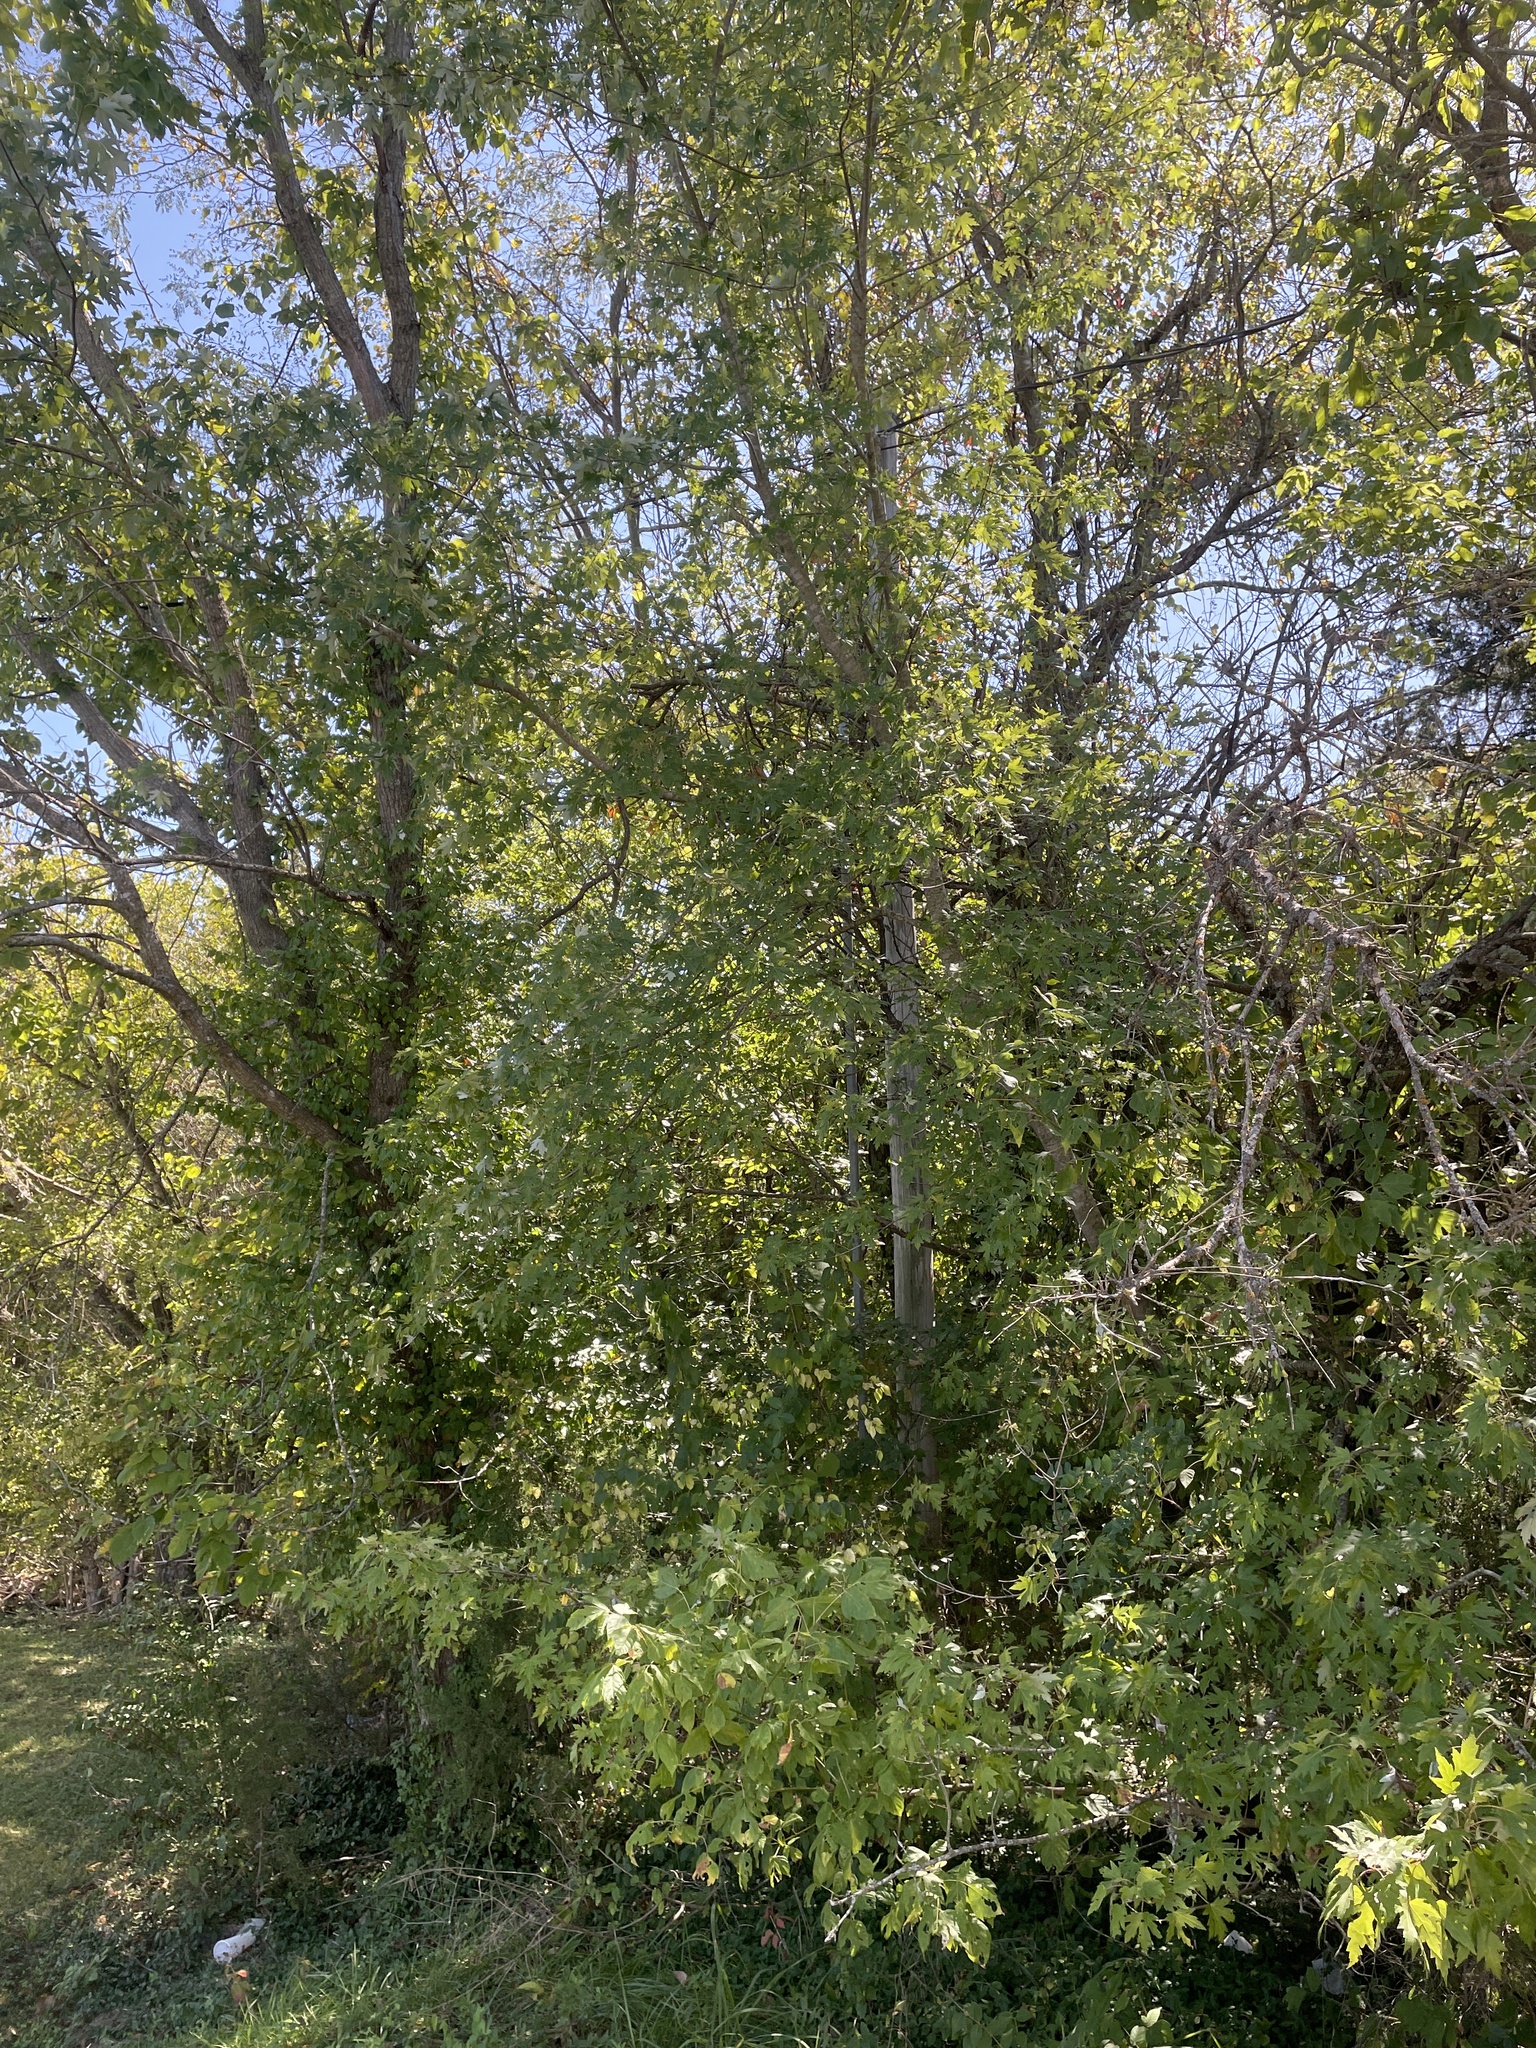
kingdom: Plantae
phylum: Tracheophyta
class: Magnoliopsida
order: Sapindales
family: Sapindaceae
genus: Acer
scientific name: Acer saccharinum
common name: Silver maple
